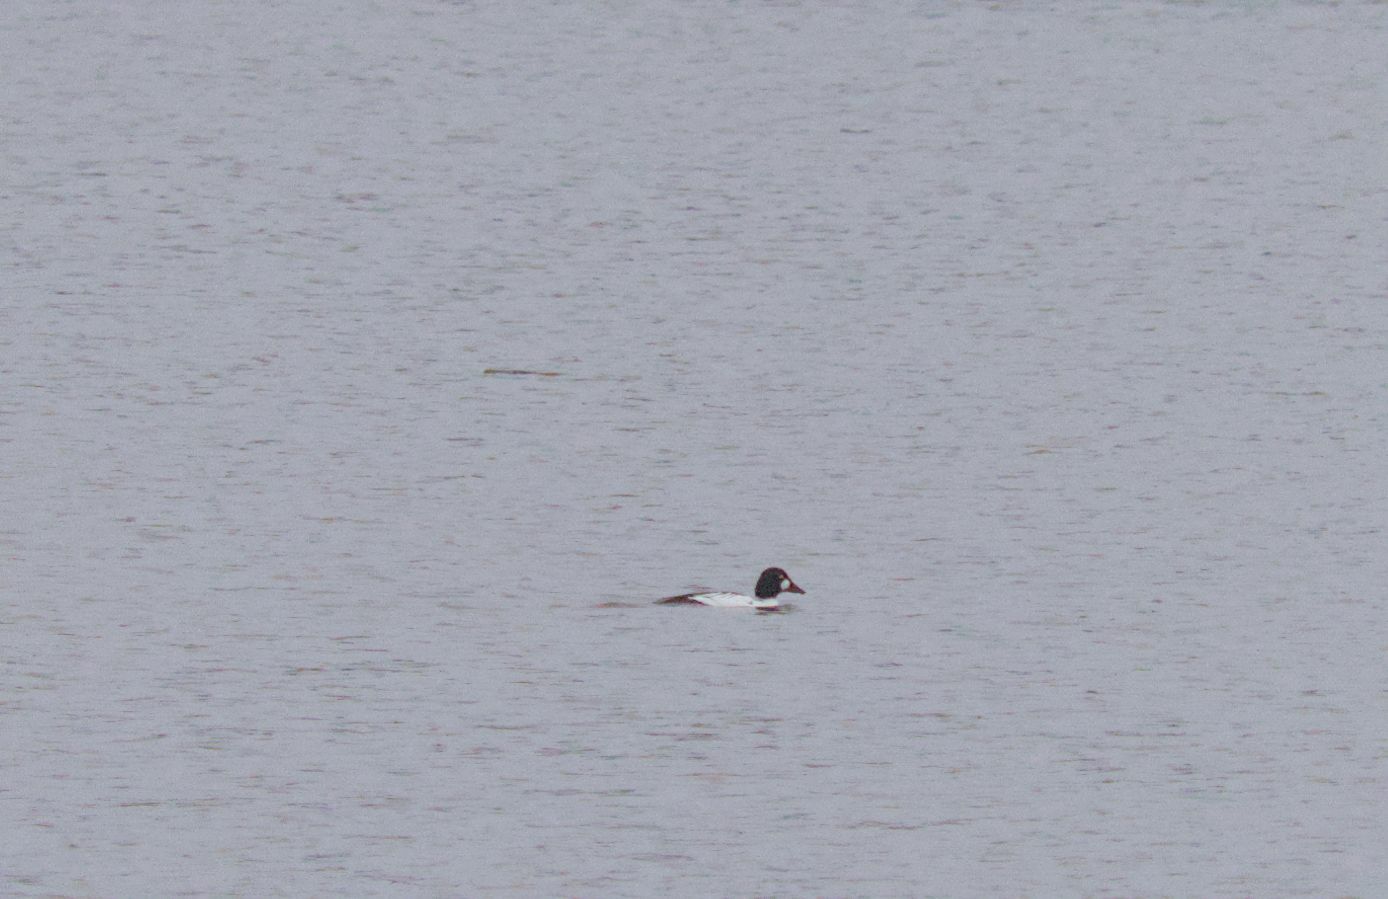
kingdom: Animalia
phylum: Chordata
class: Aves
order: Anseriformes
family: Anatidae
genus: Bucephala
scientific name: Bucephala clangula
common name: Common goldeneye
